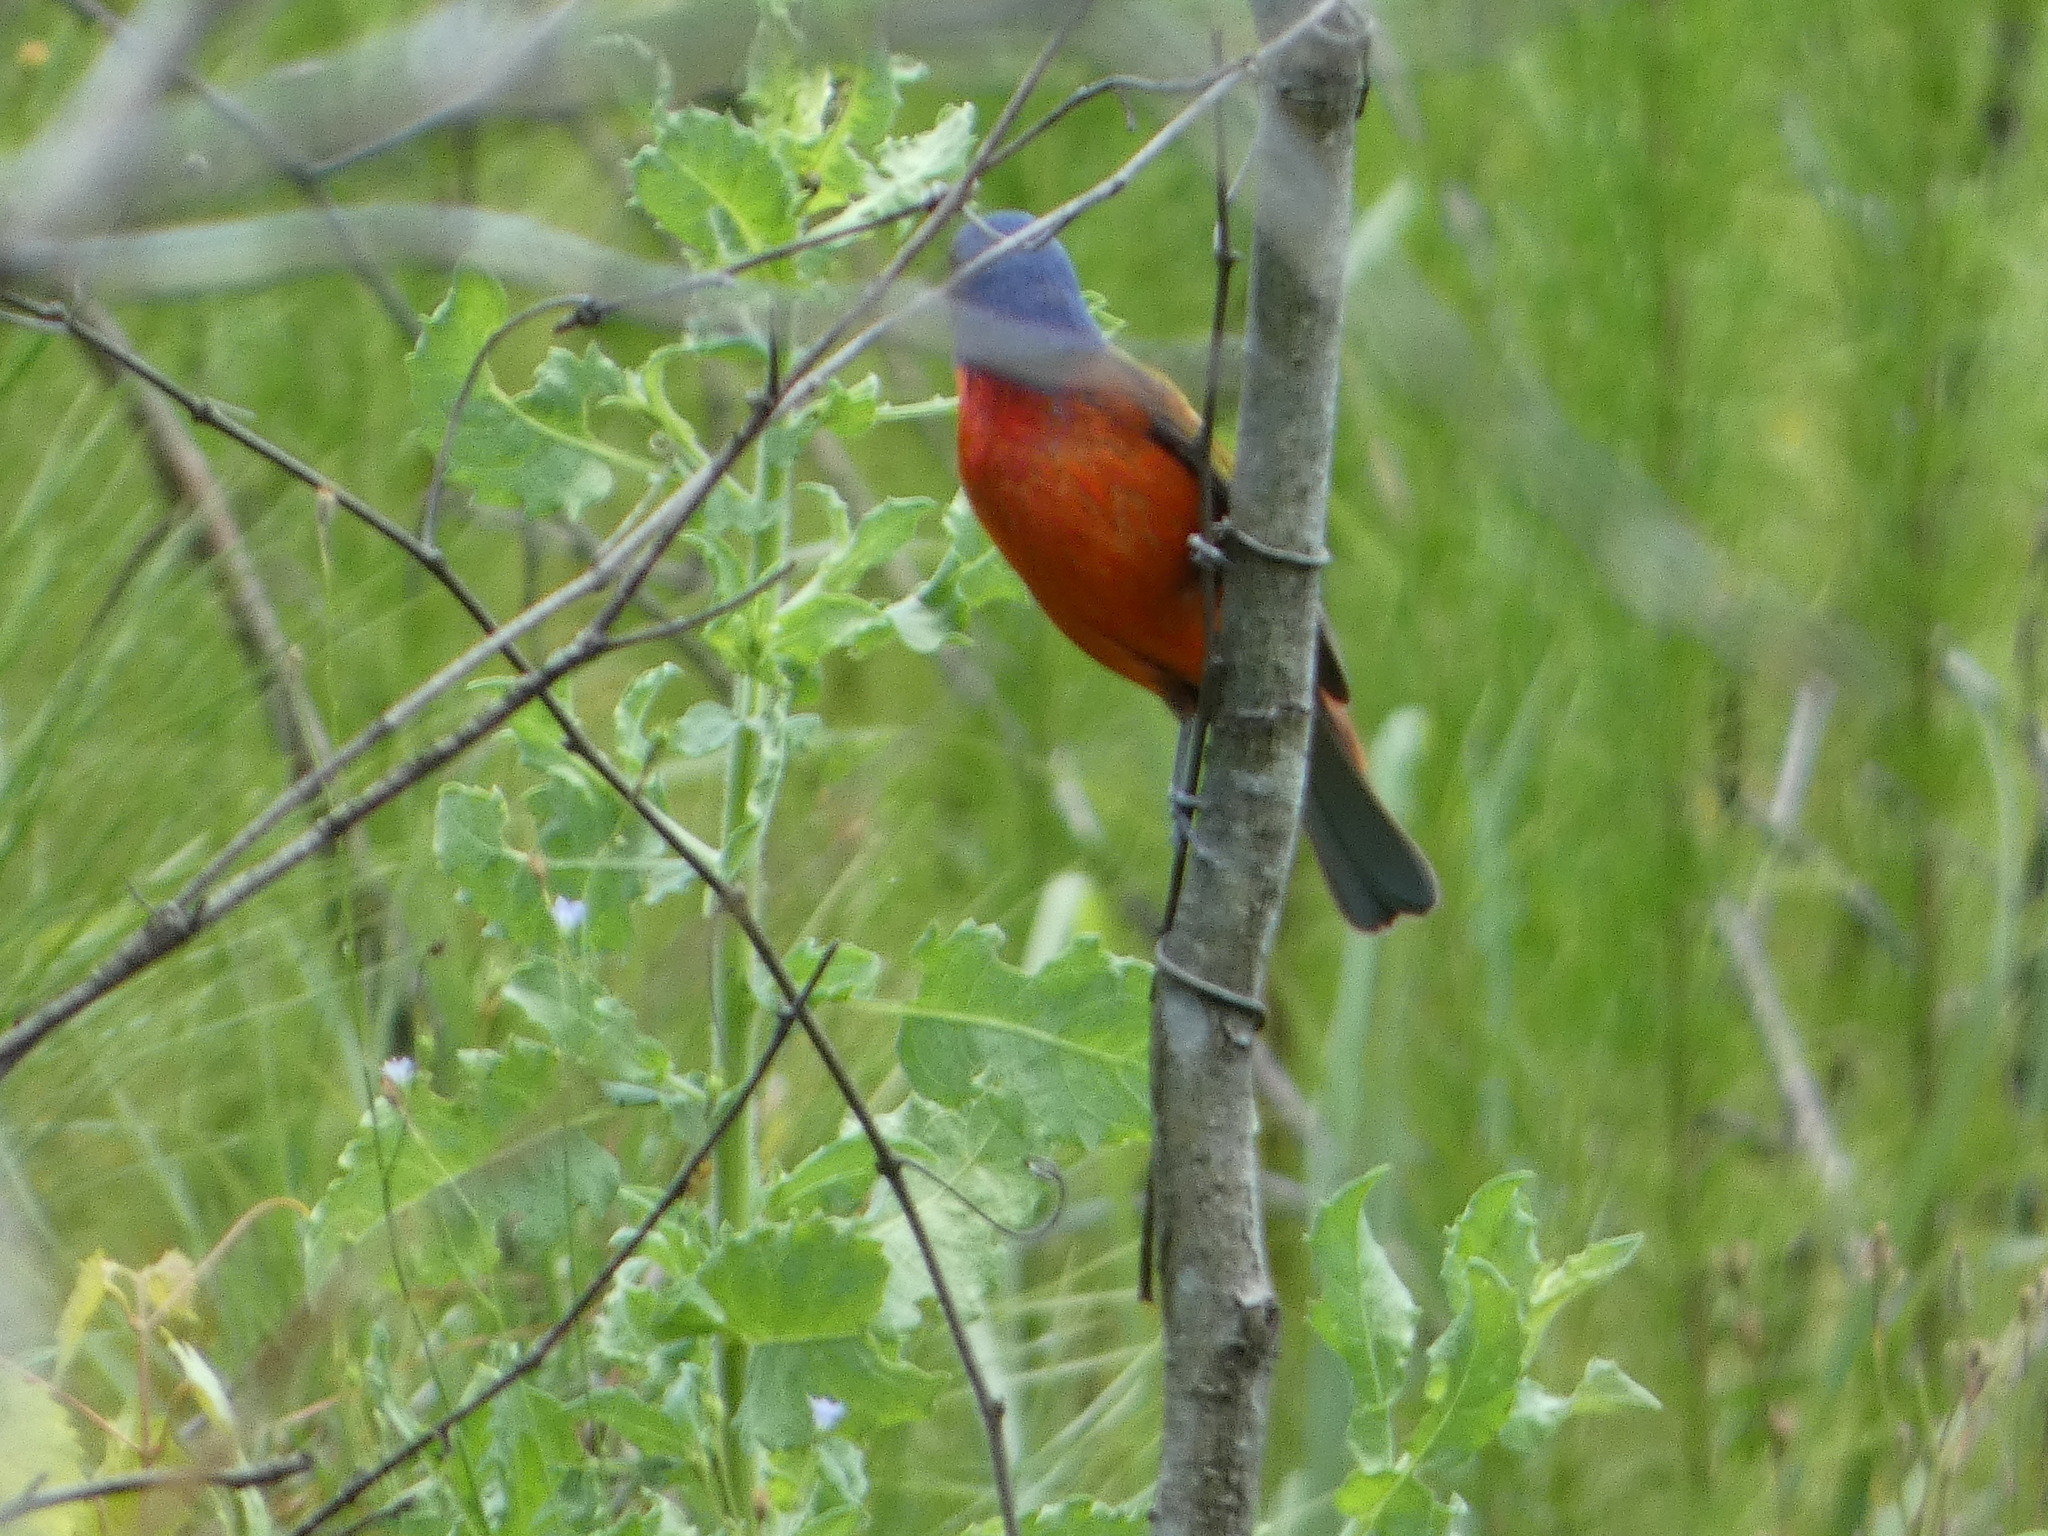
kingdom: Animalia
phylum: Chordata
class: Aves
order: Passeriformes
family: Cardinalidae
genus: Passerina
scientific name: Passerina ciris
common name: Painted bunting
